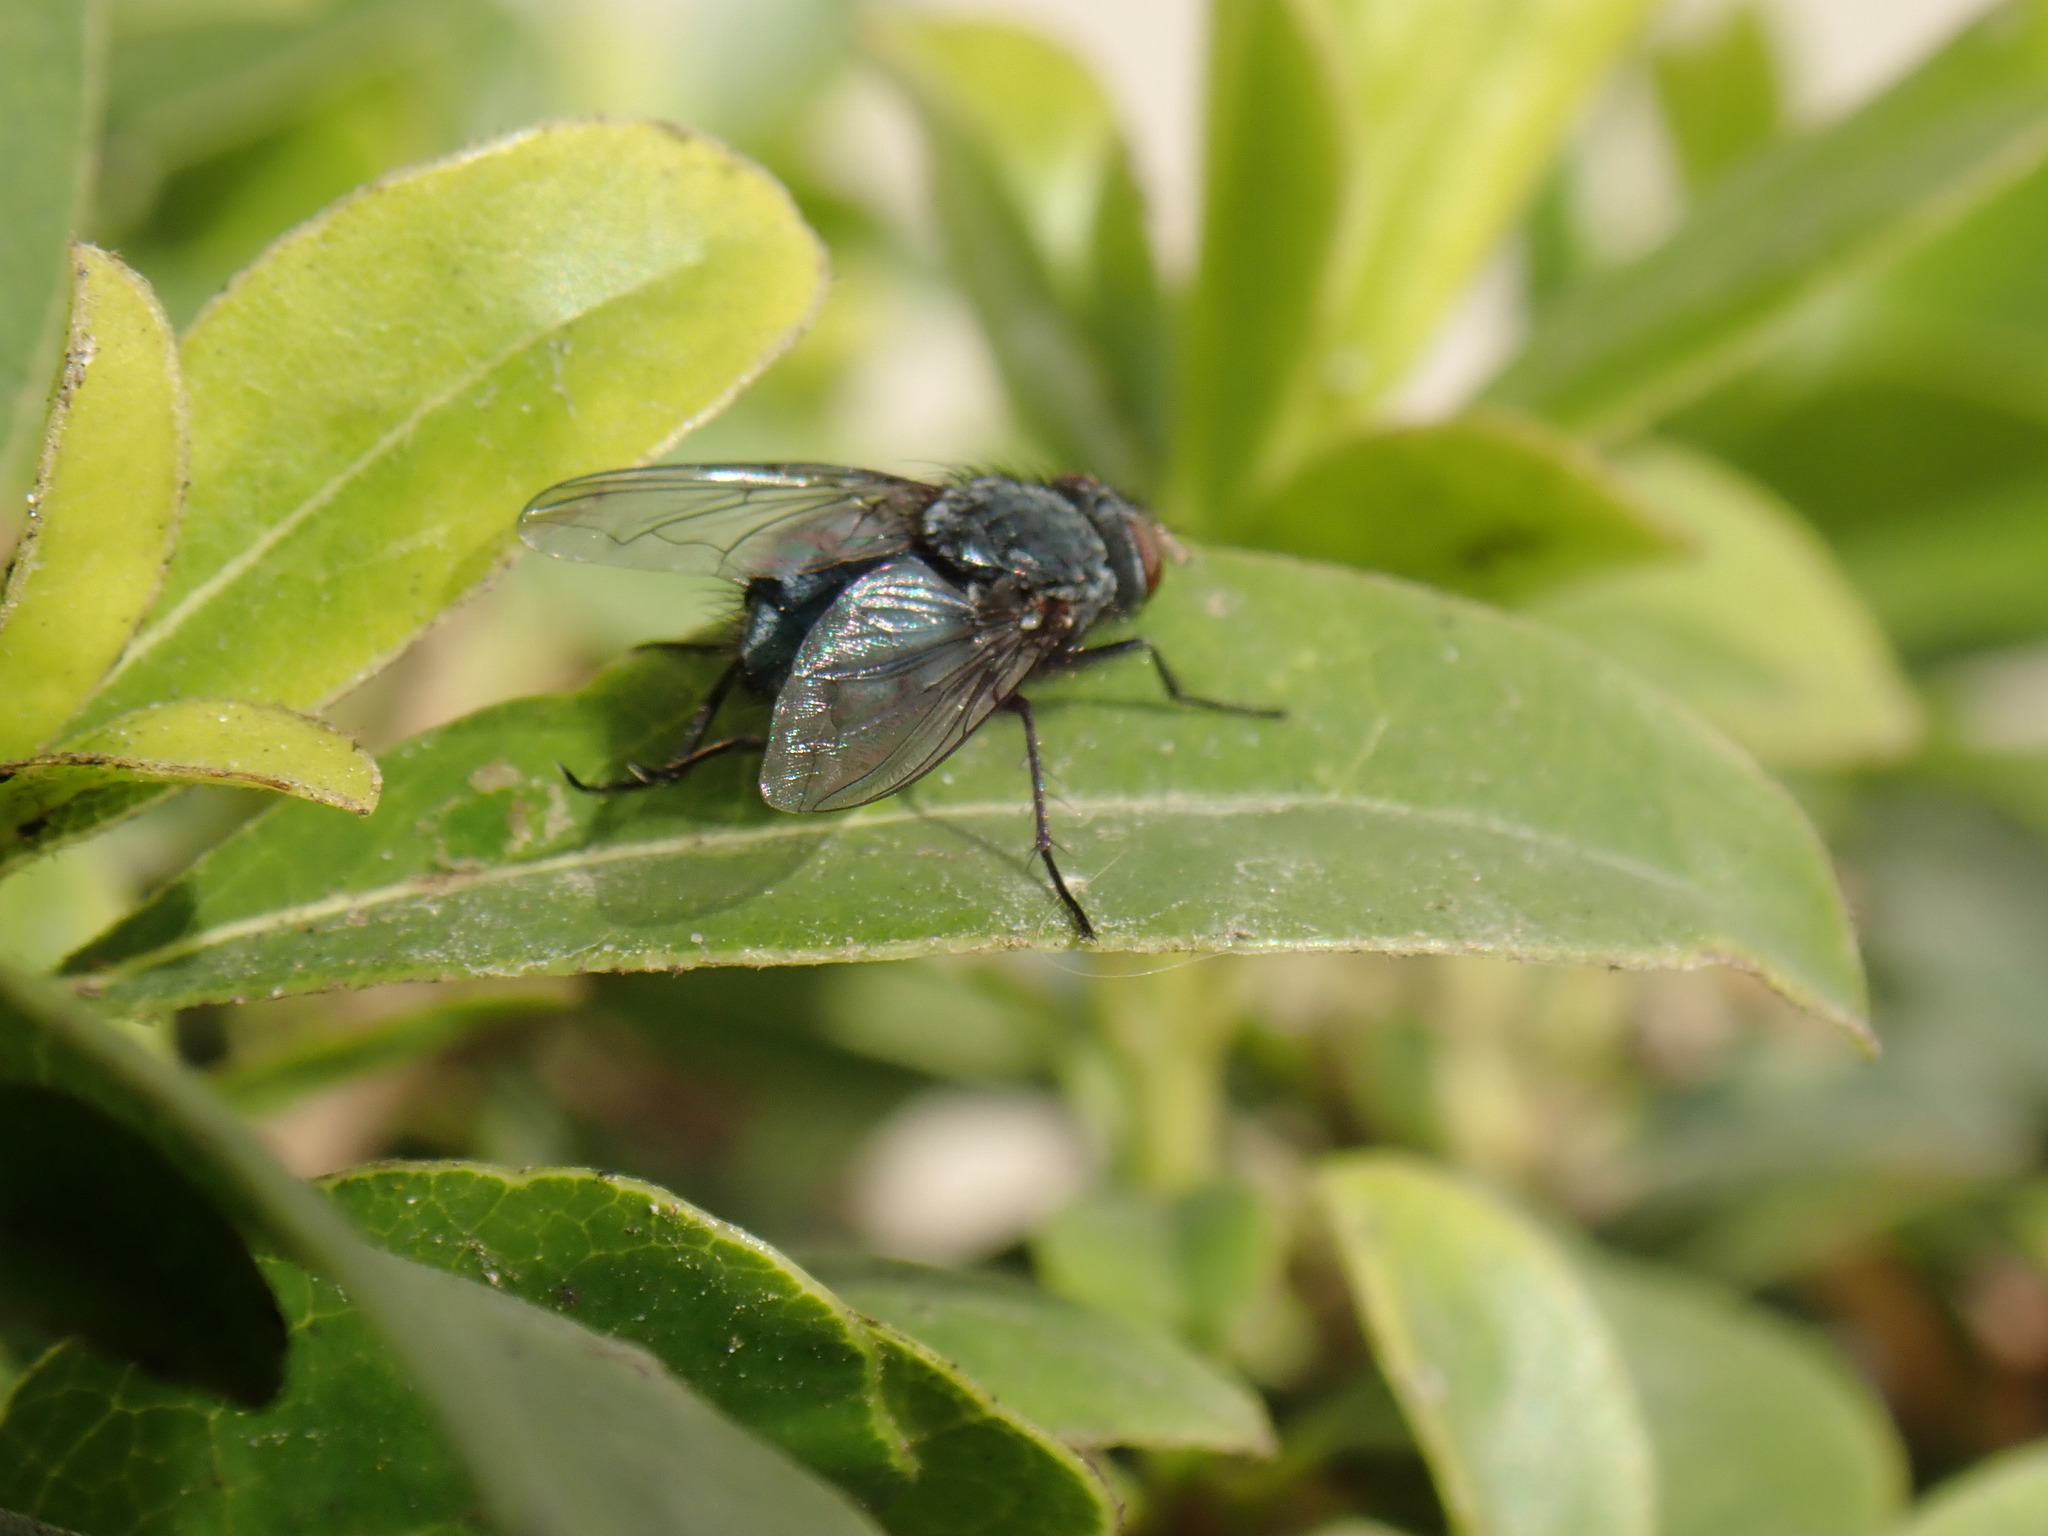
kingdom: Animalia
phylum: Arthropoda
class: Insecta
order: Diptera
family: Calliphoridae
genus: Calliphora
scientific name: Calliphora vicina
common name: Common blow flie
